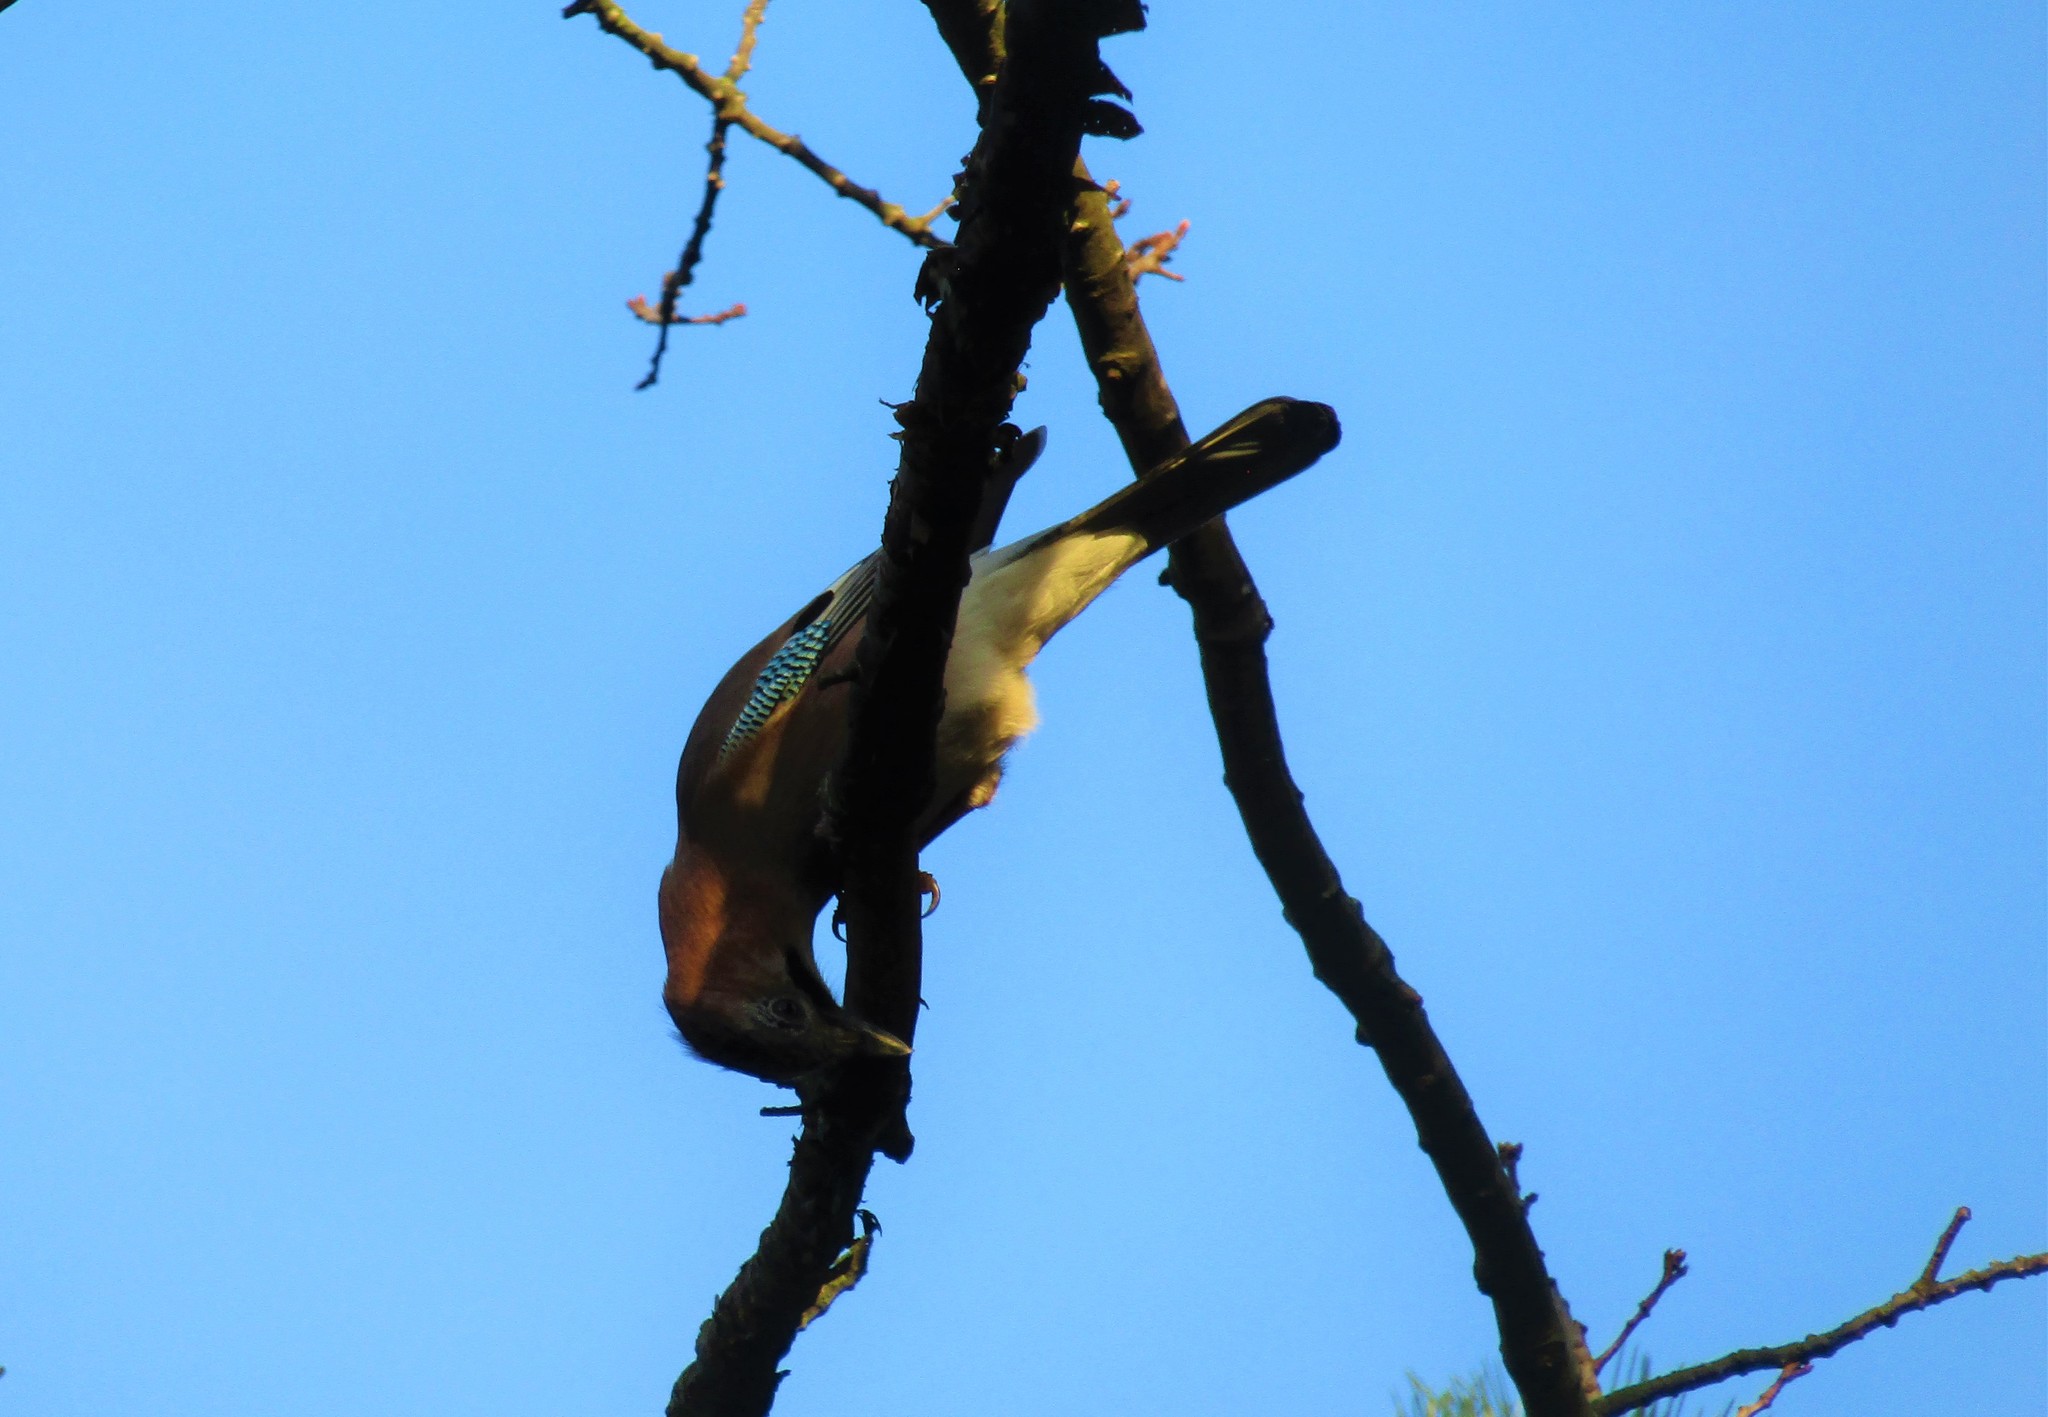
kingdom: Animalia
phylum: Chordata
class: Aves
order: Passeriformes
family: Corvidae
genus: Garrulus
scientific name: Garrulus glandarius
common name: Eurasian jay
